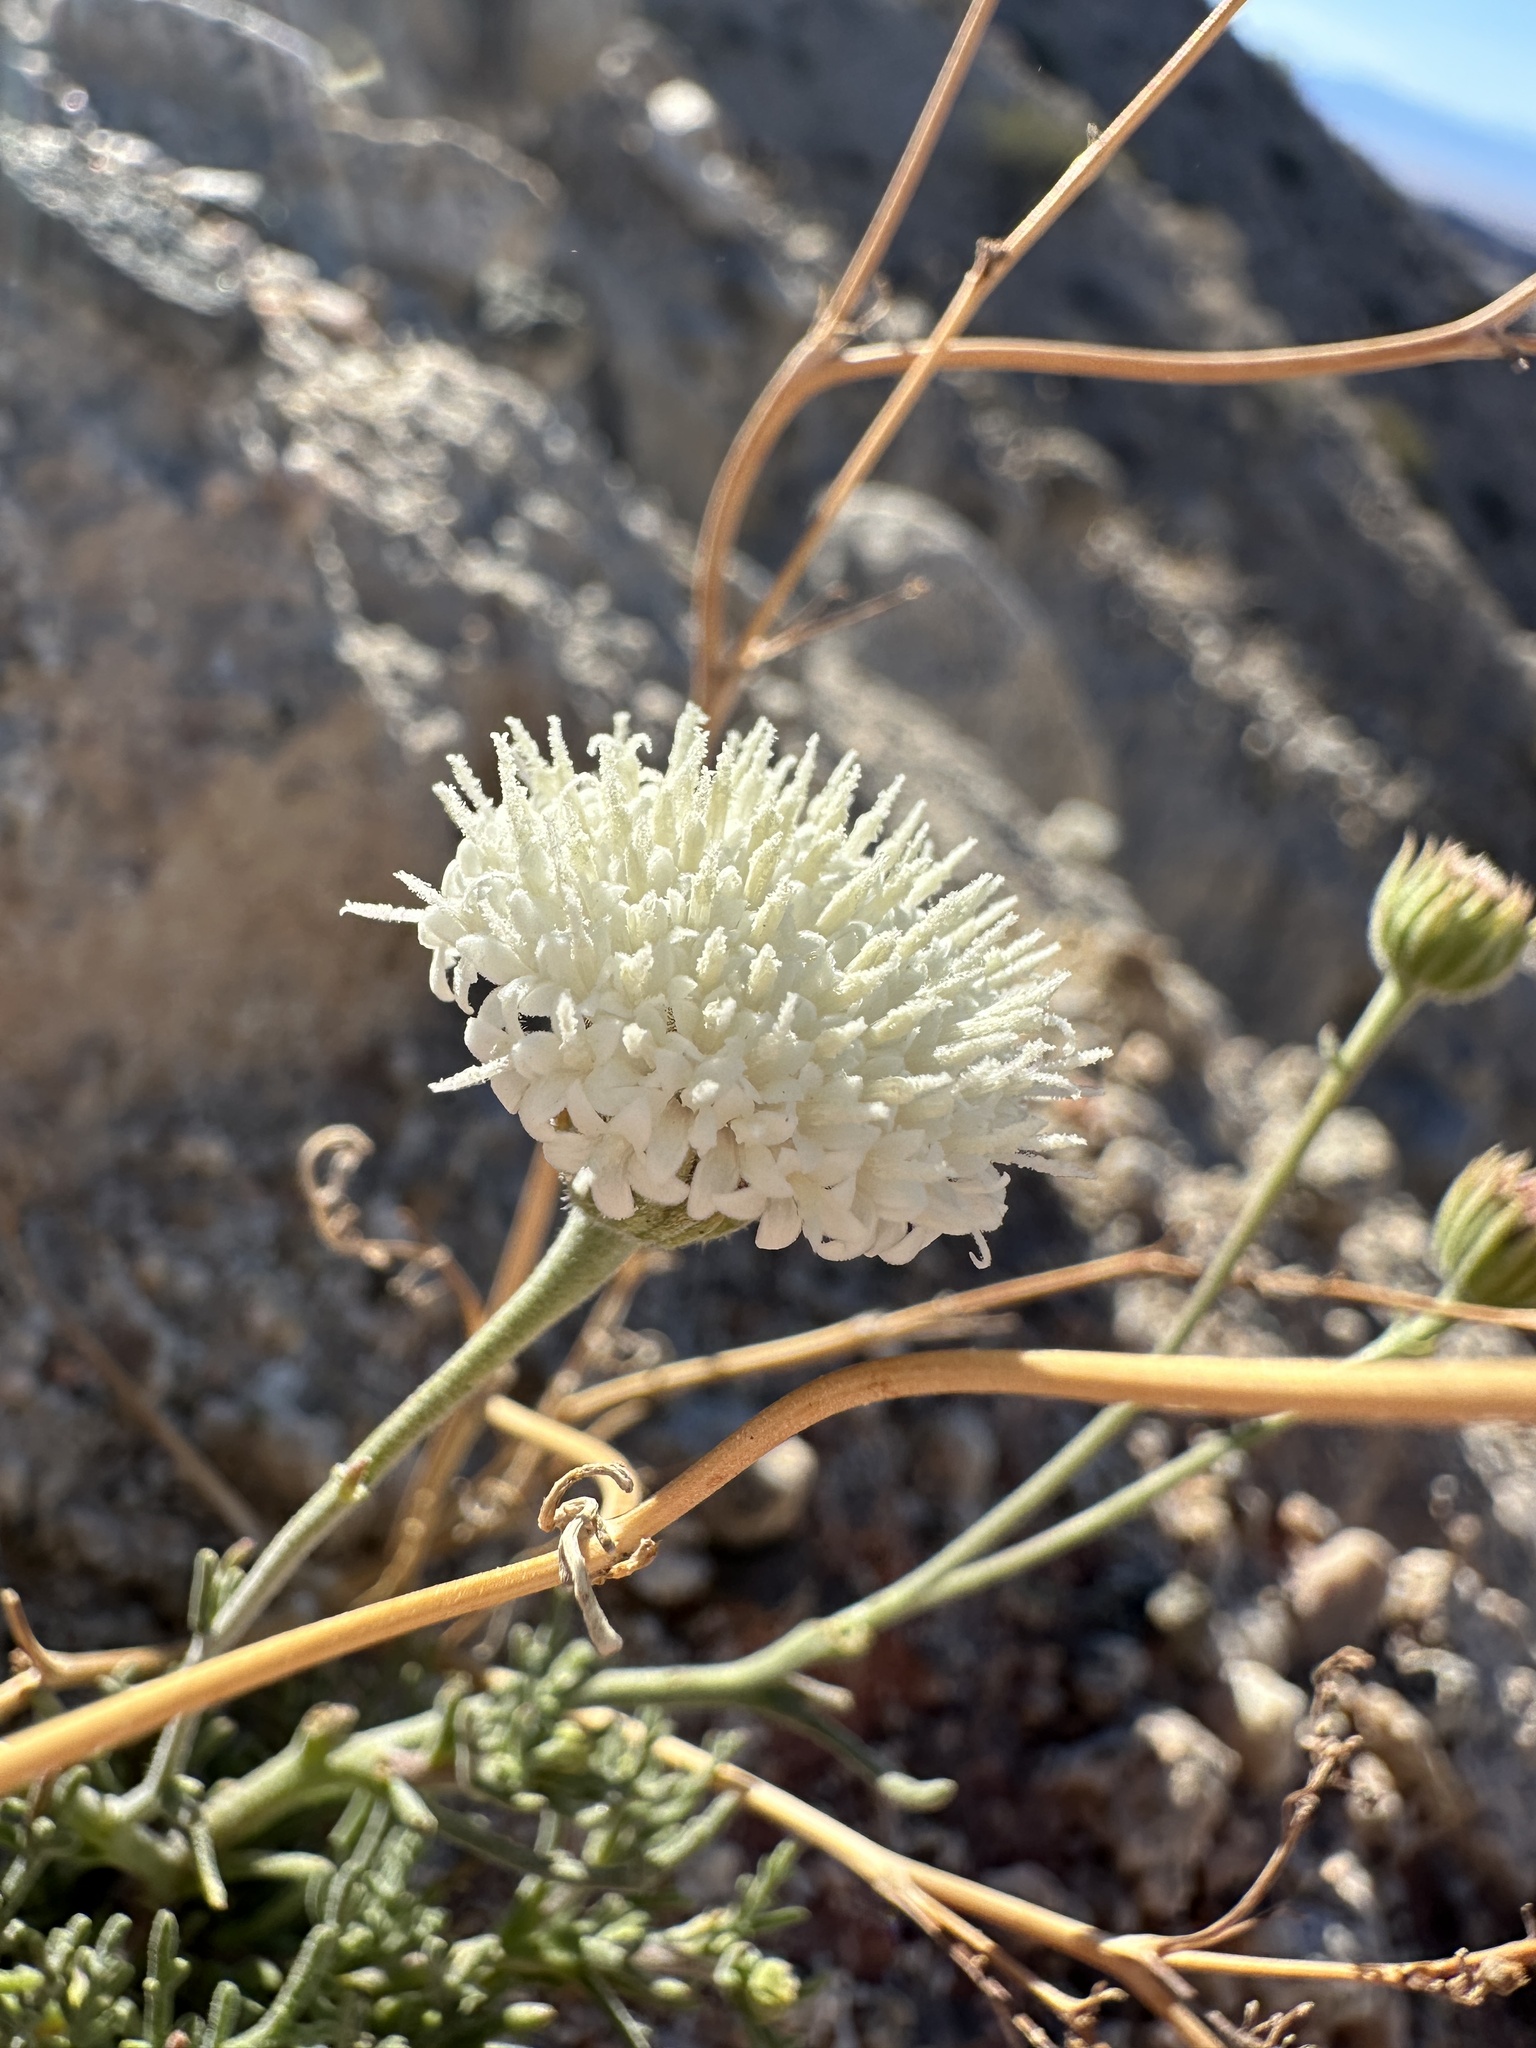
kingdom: Plantae
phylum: Tracheophyta
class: Magnoliopsida
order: Asterales
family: Asteraceae
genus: Chaenactis
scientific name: Chaenactis carphoclinia
